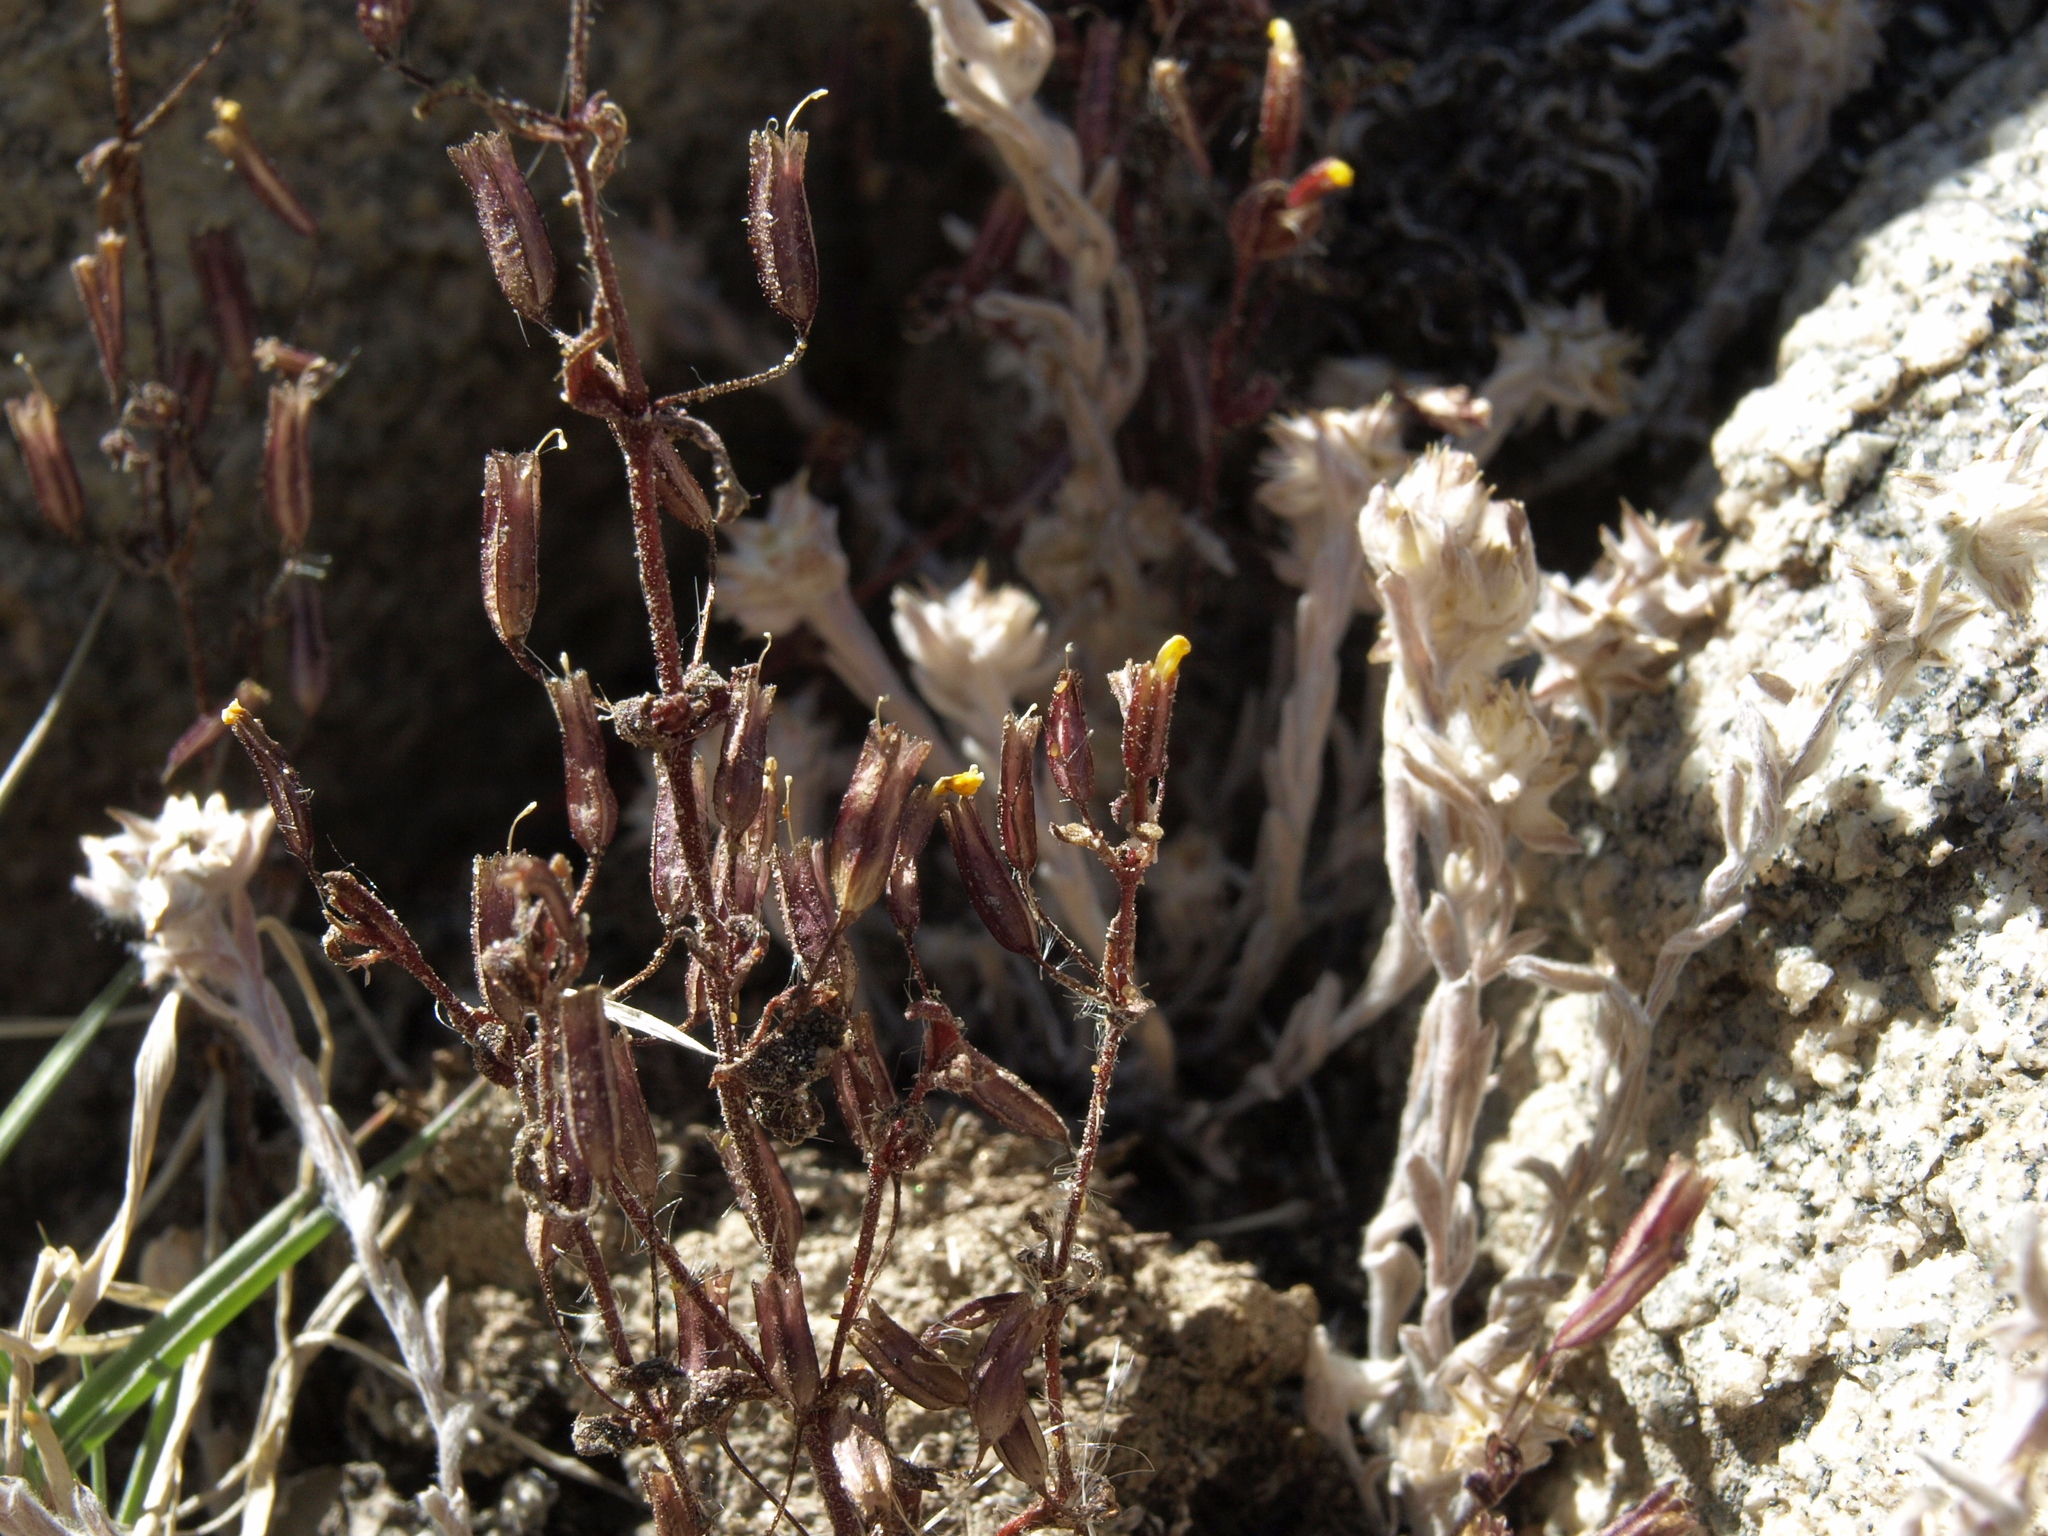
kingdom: Plantae
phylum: Tracheophyta
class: Magnoliopsida
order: Lamiales
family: Phrymaceae
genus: Erythranthe
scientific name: Erythranthe rubella
